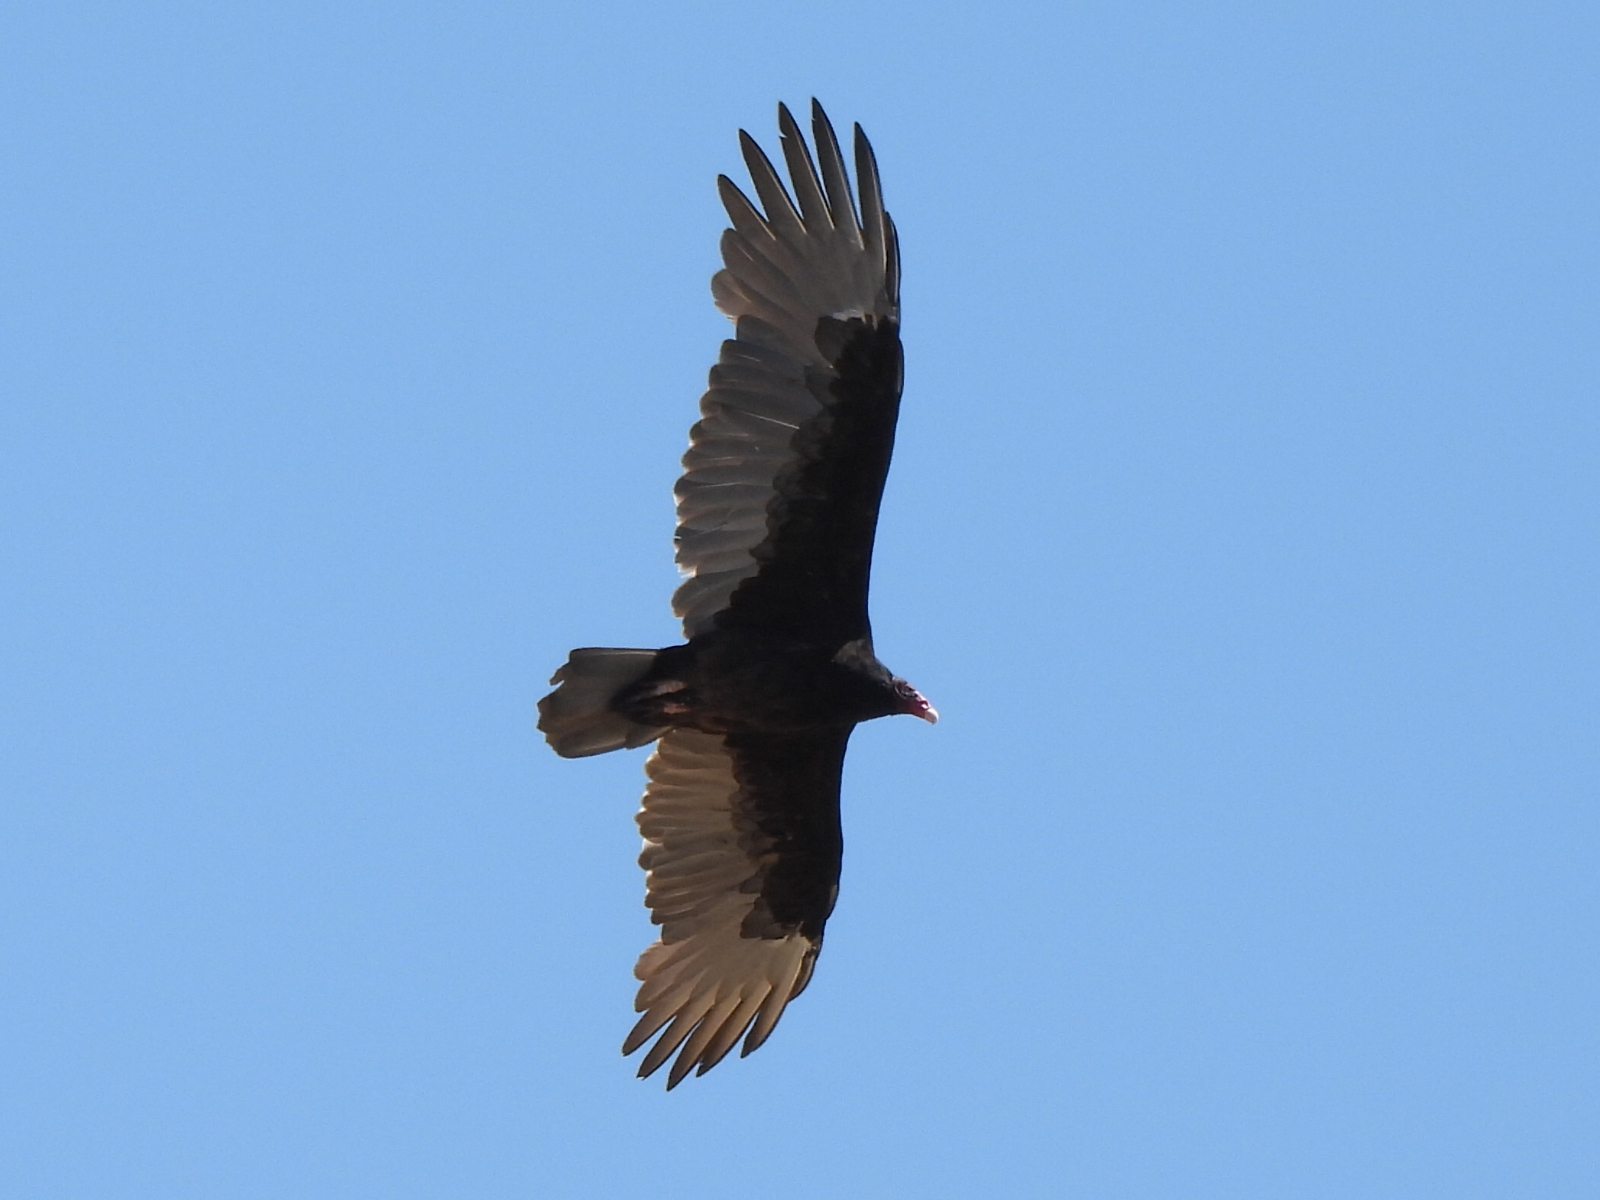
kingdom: Animalia
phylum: Chordata
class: Aves
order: Accipitriformes
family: Cathartidae
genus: Cathartes
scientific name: Cathartes aura
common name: Turkey vulture
